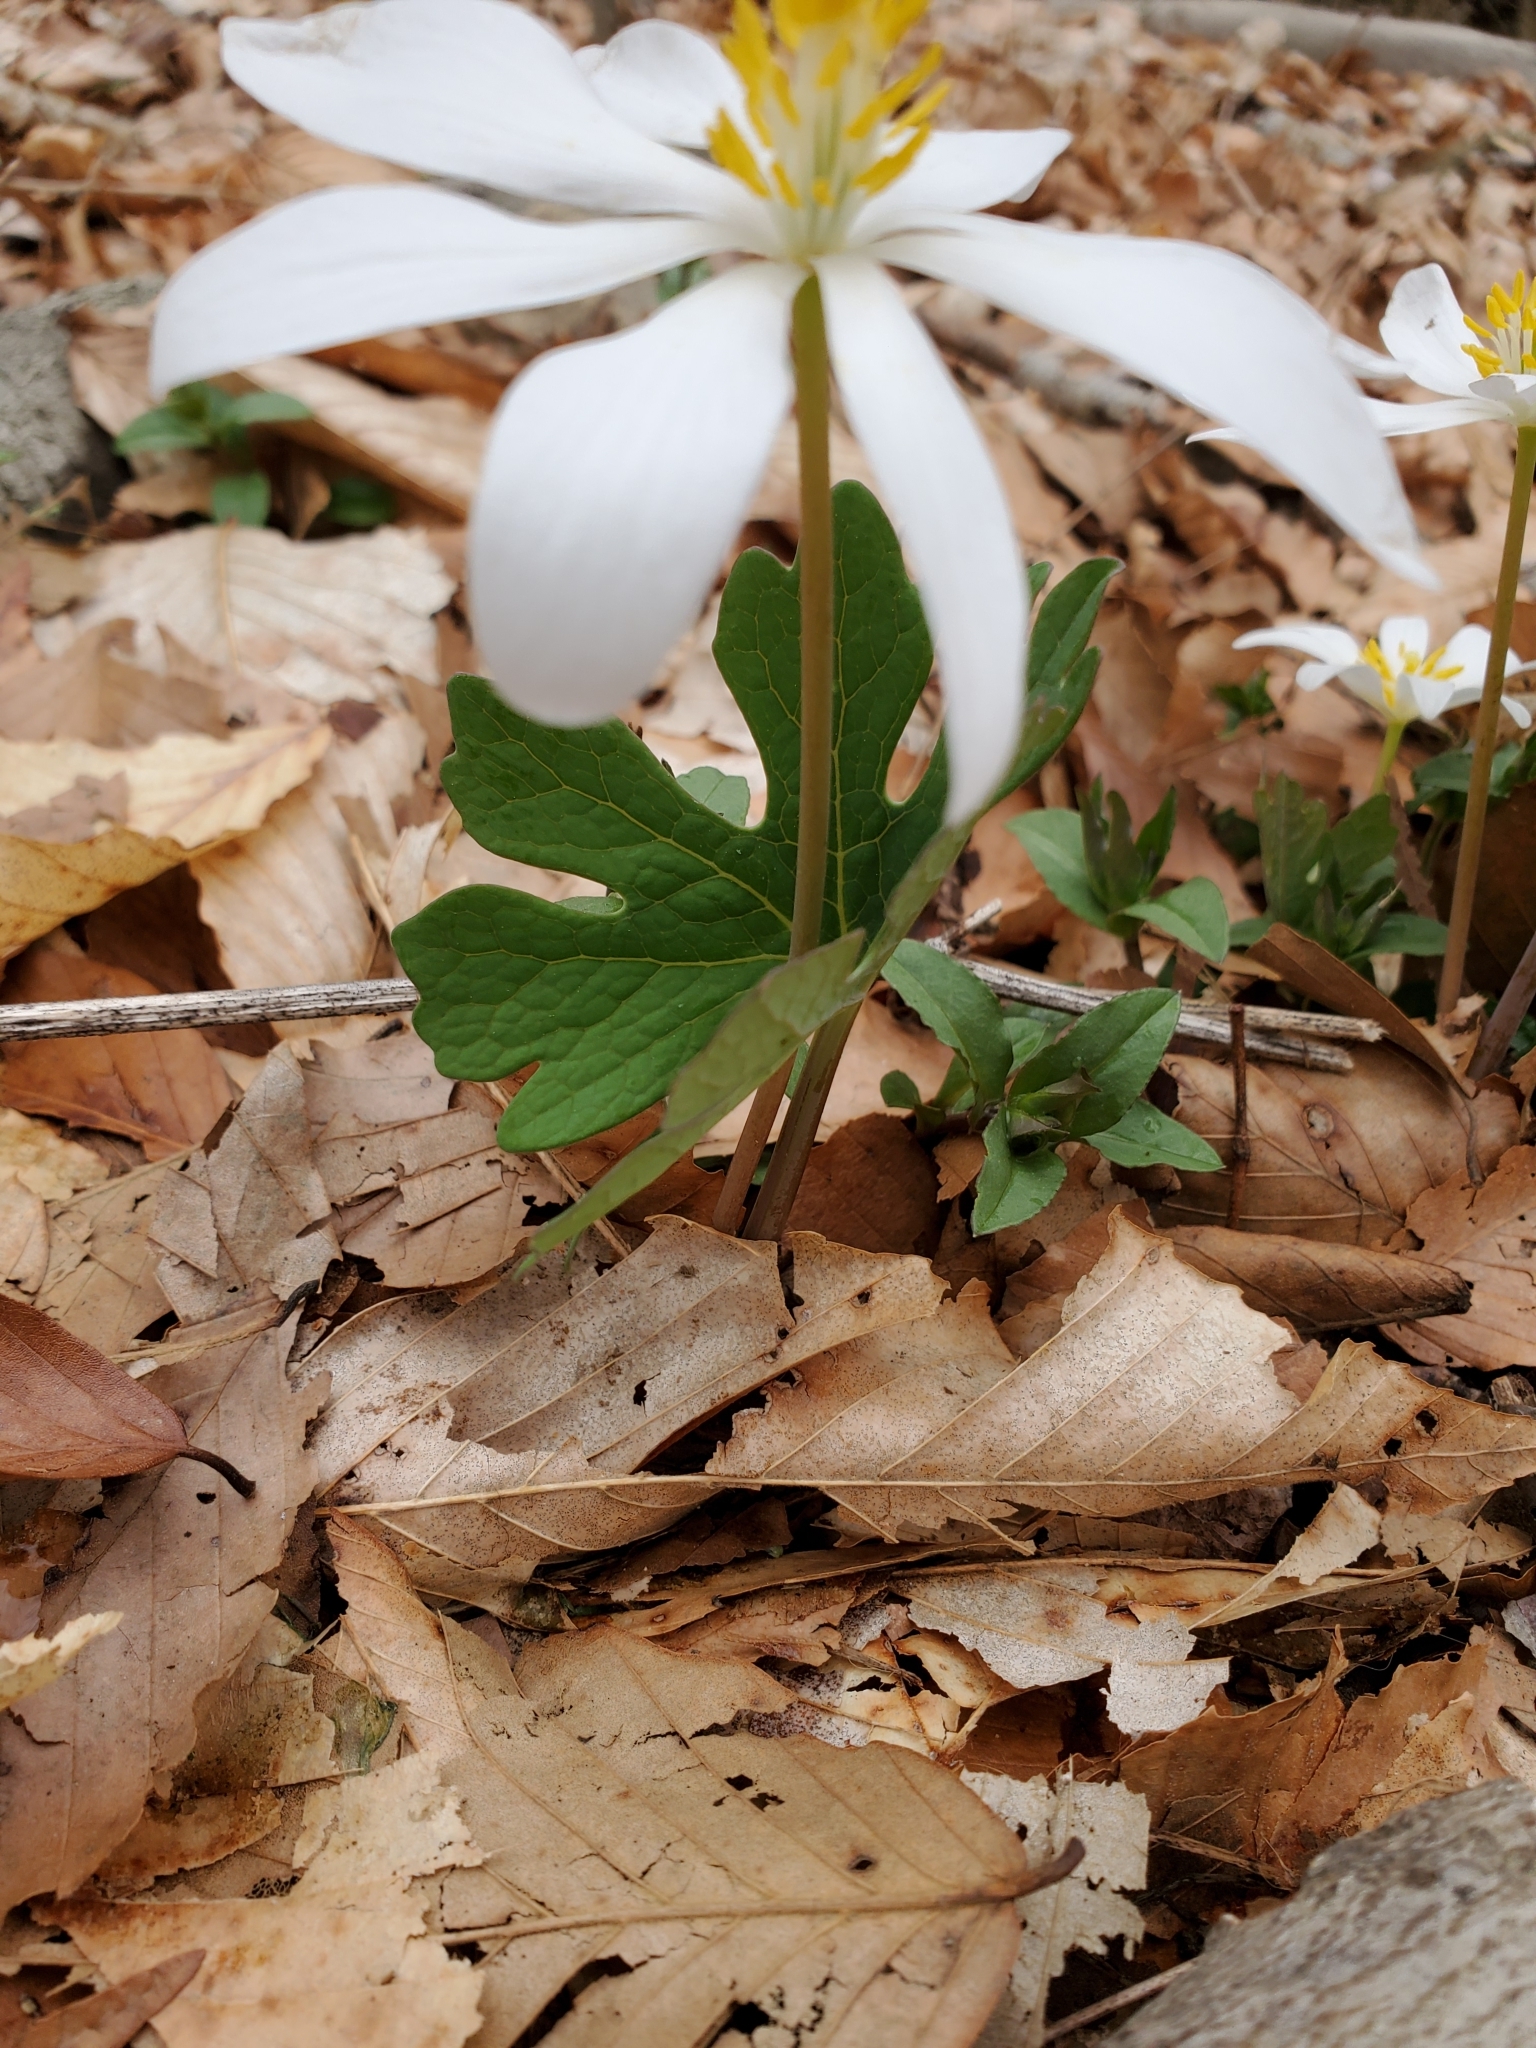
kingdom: Plantae
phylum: Tracheophyta
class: Magnoliopsida
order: Ranunculales
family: Papaveraceae
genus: Sanguinaria
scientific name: Sanguinaria canadensis
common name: Bloodroot
